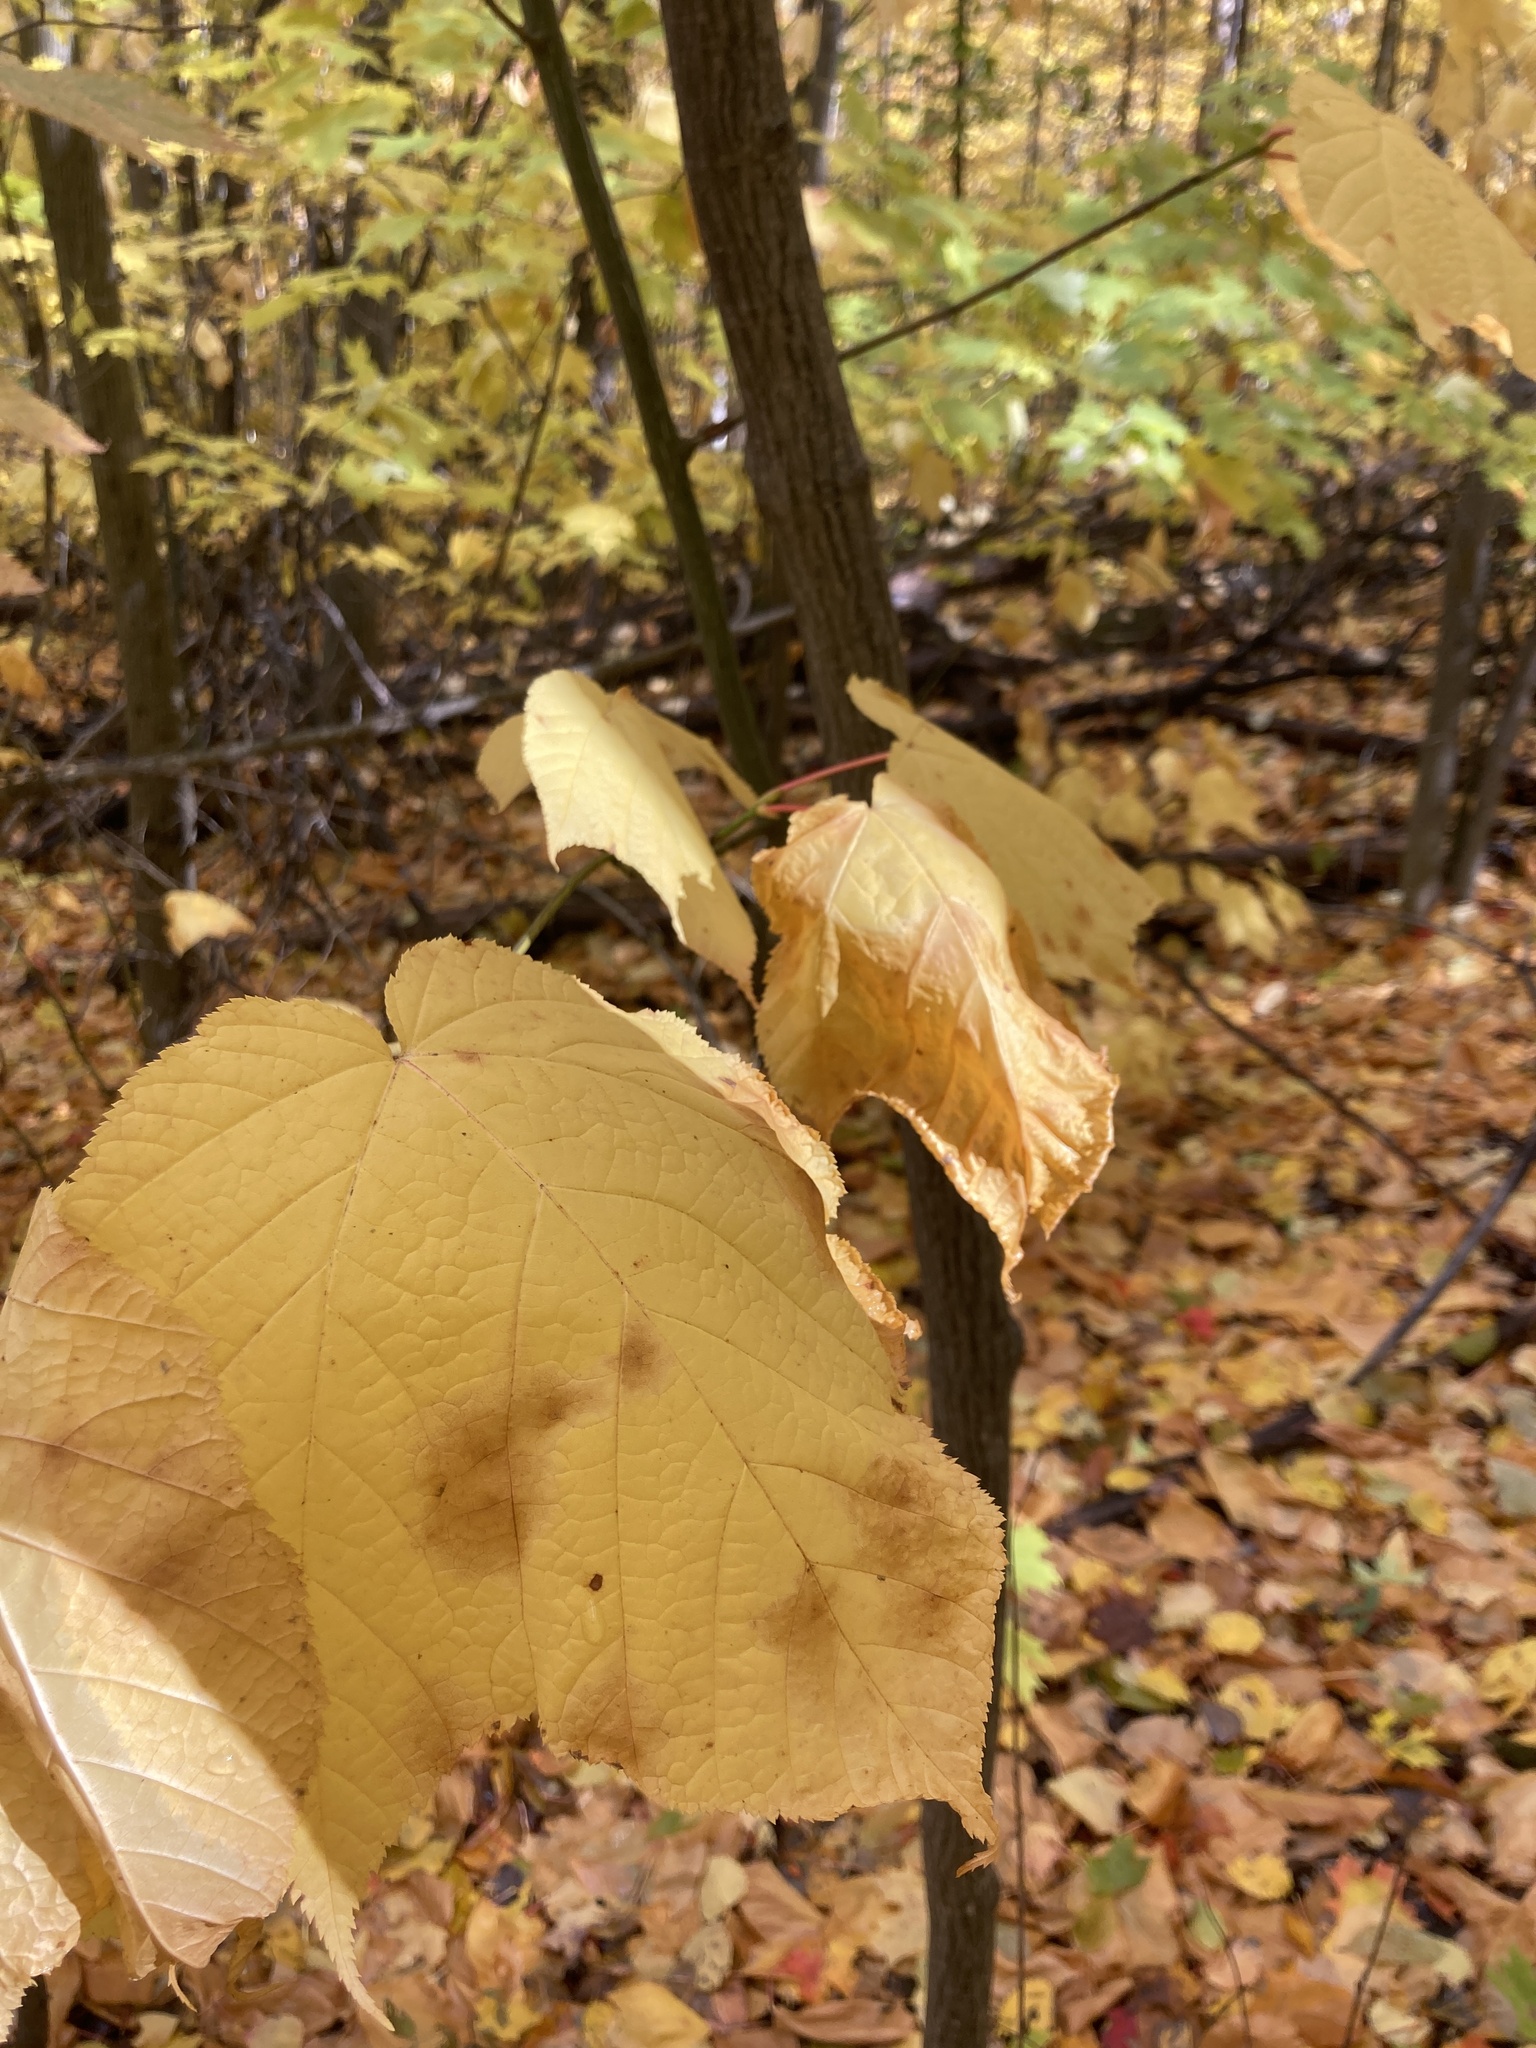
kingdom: Plantae
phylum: Tracheophyta
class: Magnoliopsida
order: Sapindales
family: Sapindaceae
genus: Acer
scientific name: Acer pensylvanicum
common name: Moosewood
